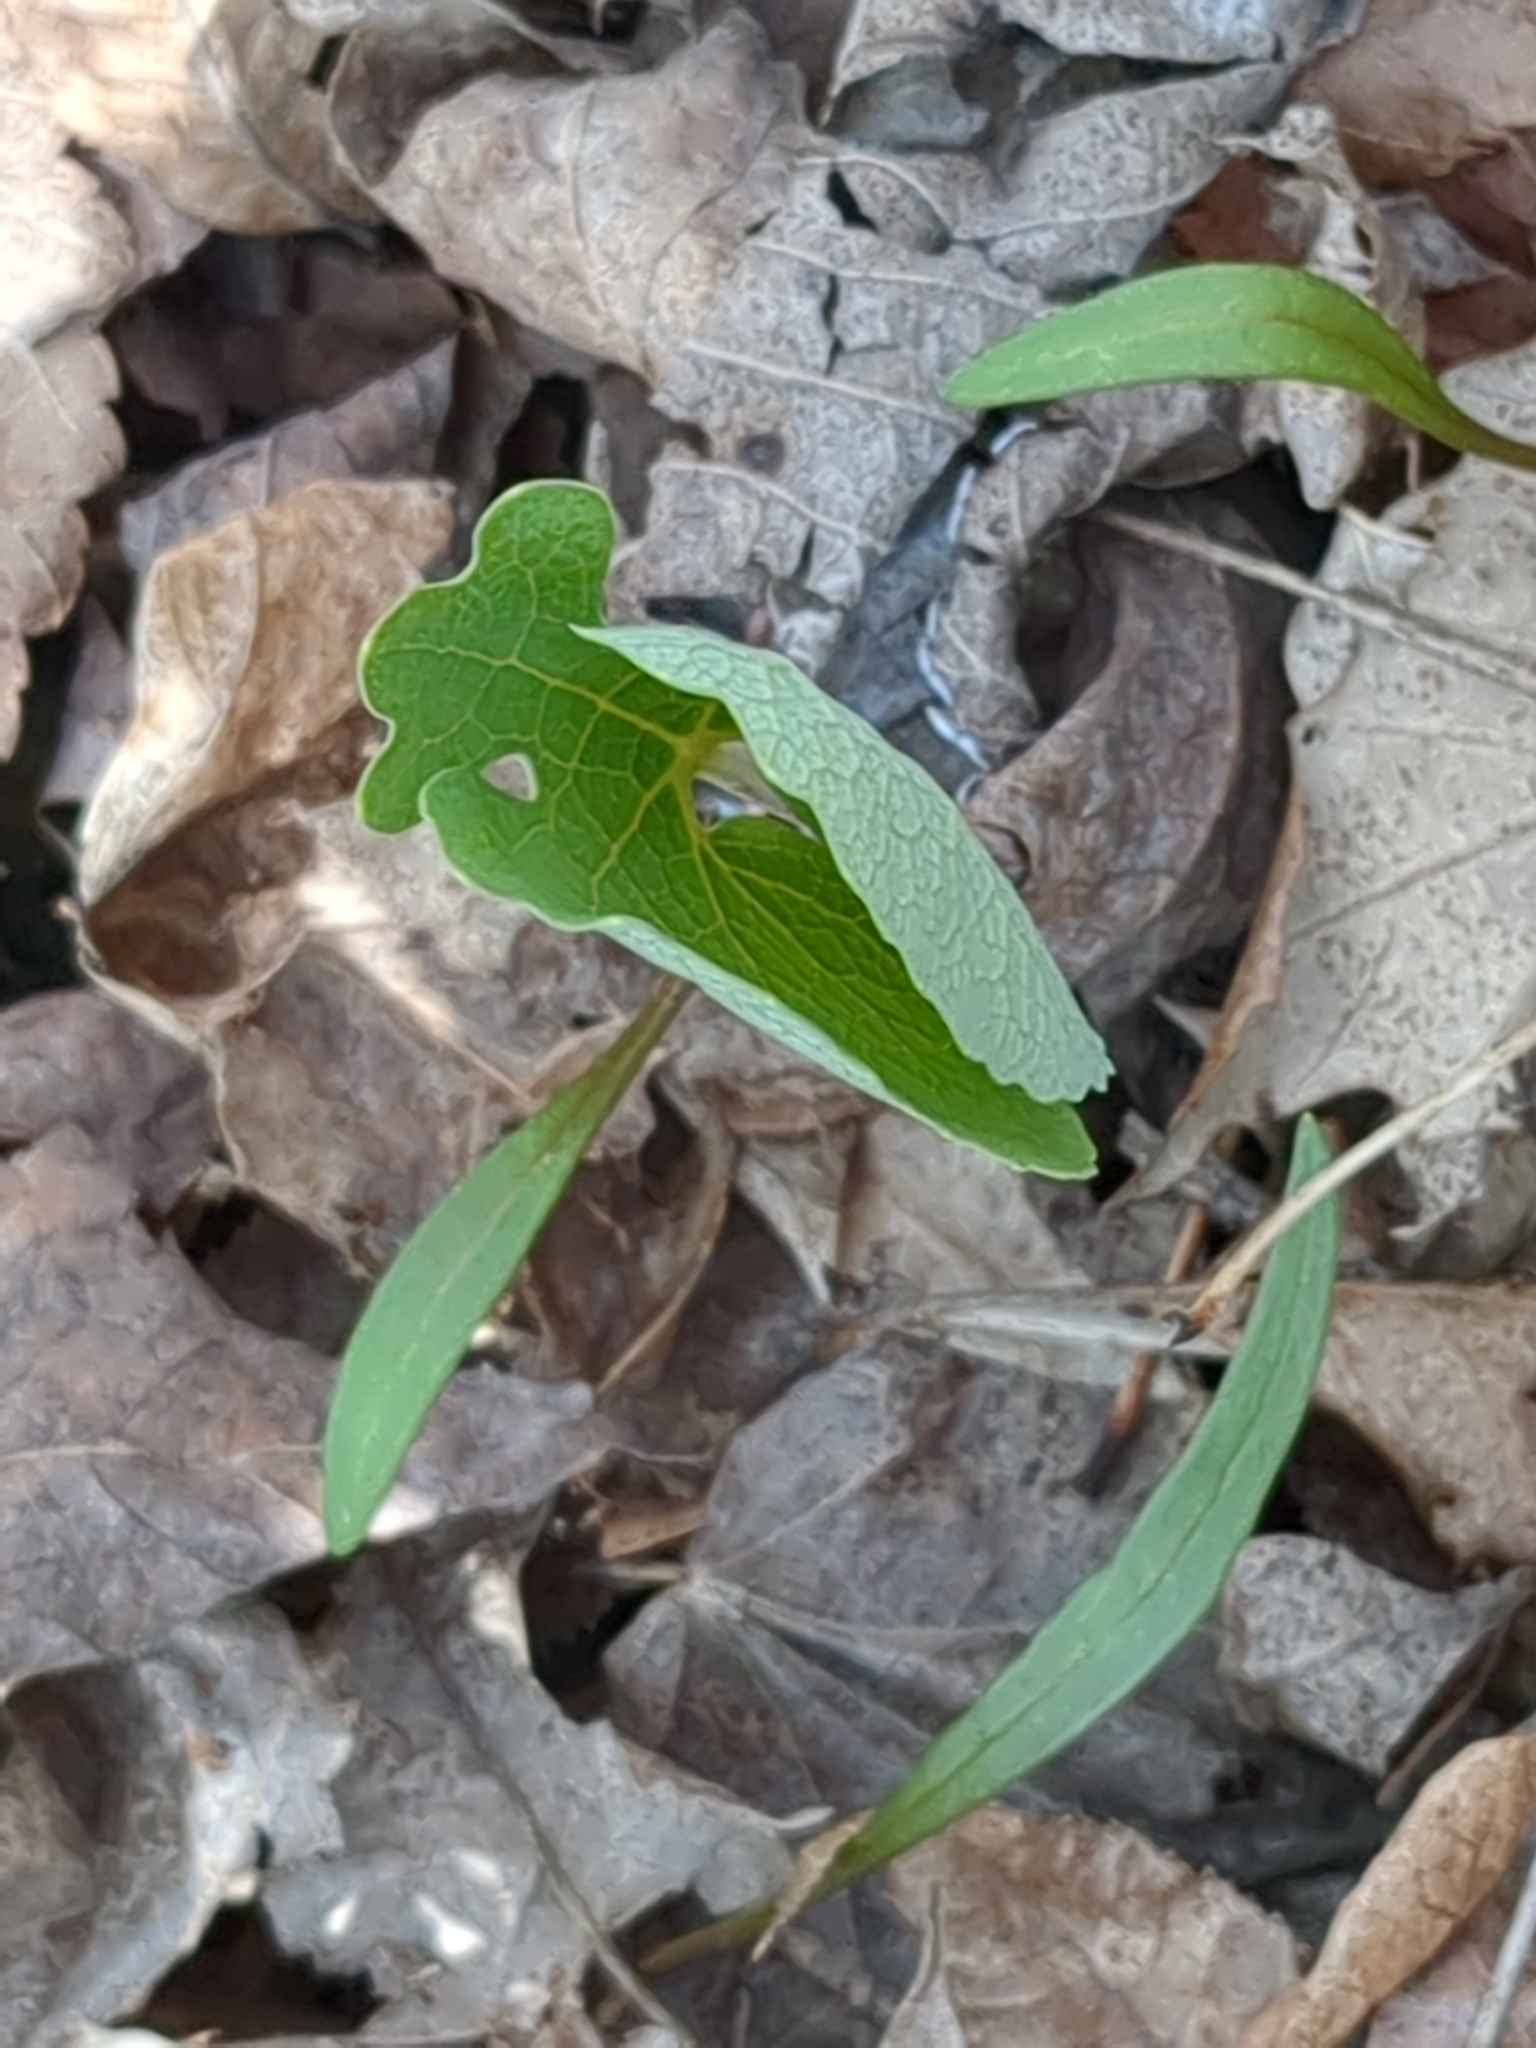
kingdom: Plantae
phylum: Tracheophyta
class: Magnoliopsida
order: Ranunculales
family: Papaveraceae
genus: Sanguinaria
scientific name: Sanguinaria canadensis
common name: Bloodroot
